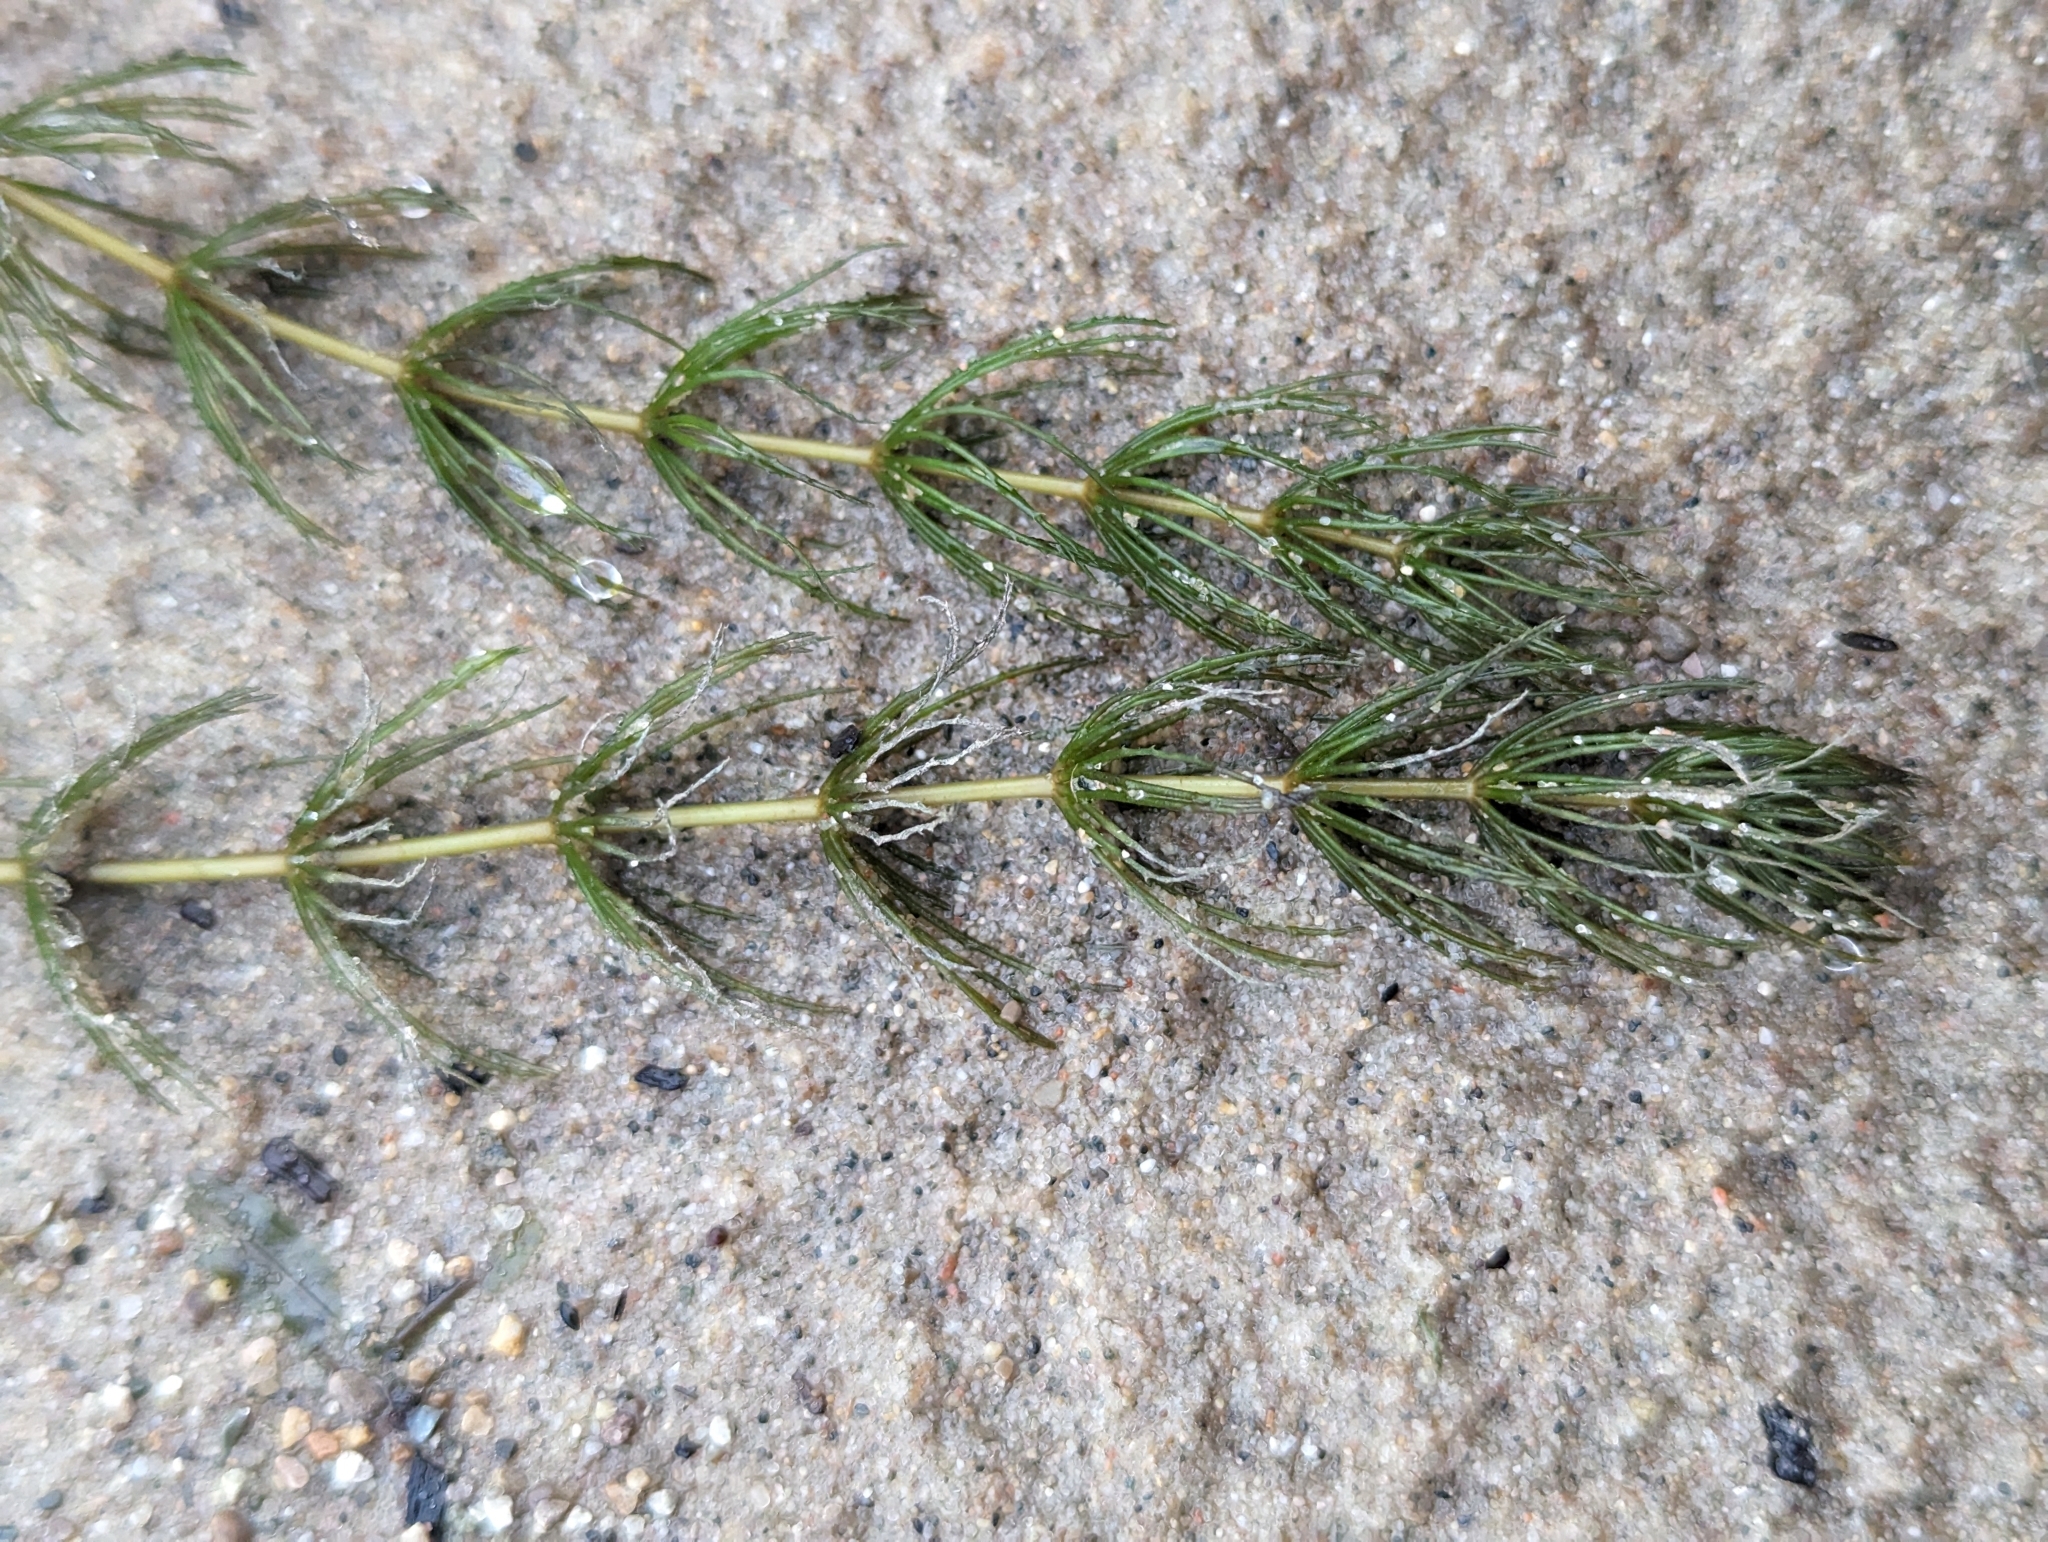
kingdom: Plantae
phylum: Tracheophyta
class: Magnoliopsida
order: Ceratophyllales
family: Ceratophyllaceae
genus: Ceratophyllum
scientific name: Ceratophyllum demersum
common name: Rigid hornwort
